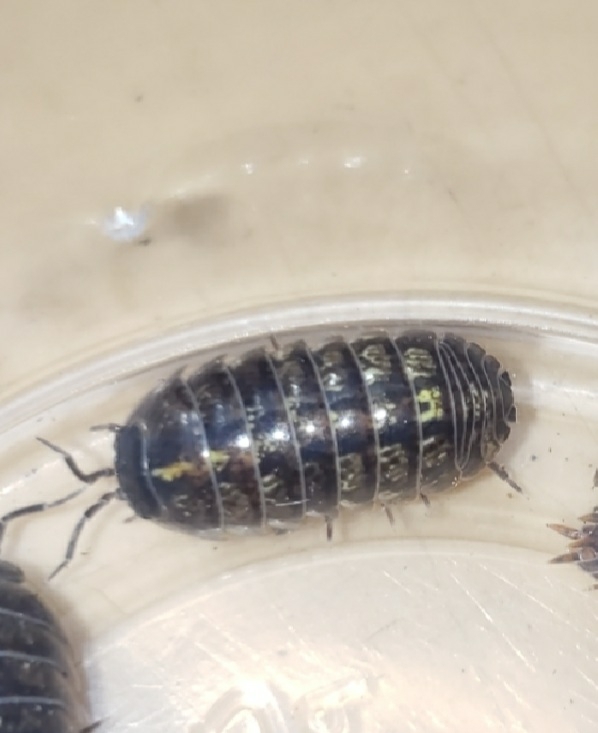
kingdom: Animalia
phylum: Arthropoda
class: Malacostraca
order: Isopoda
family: Armadillidiidae
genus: Armadillidium
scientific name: Armadillidium vulgare
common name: Common pill woodlouse
